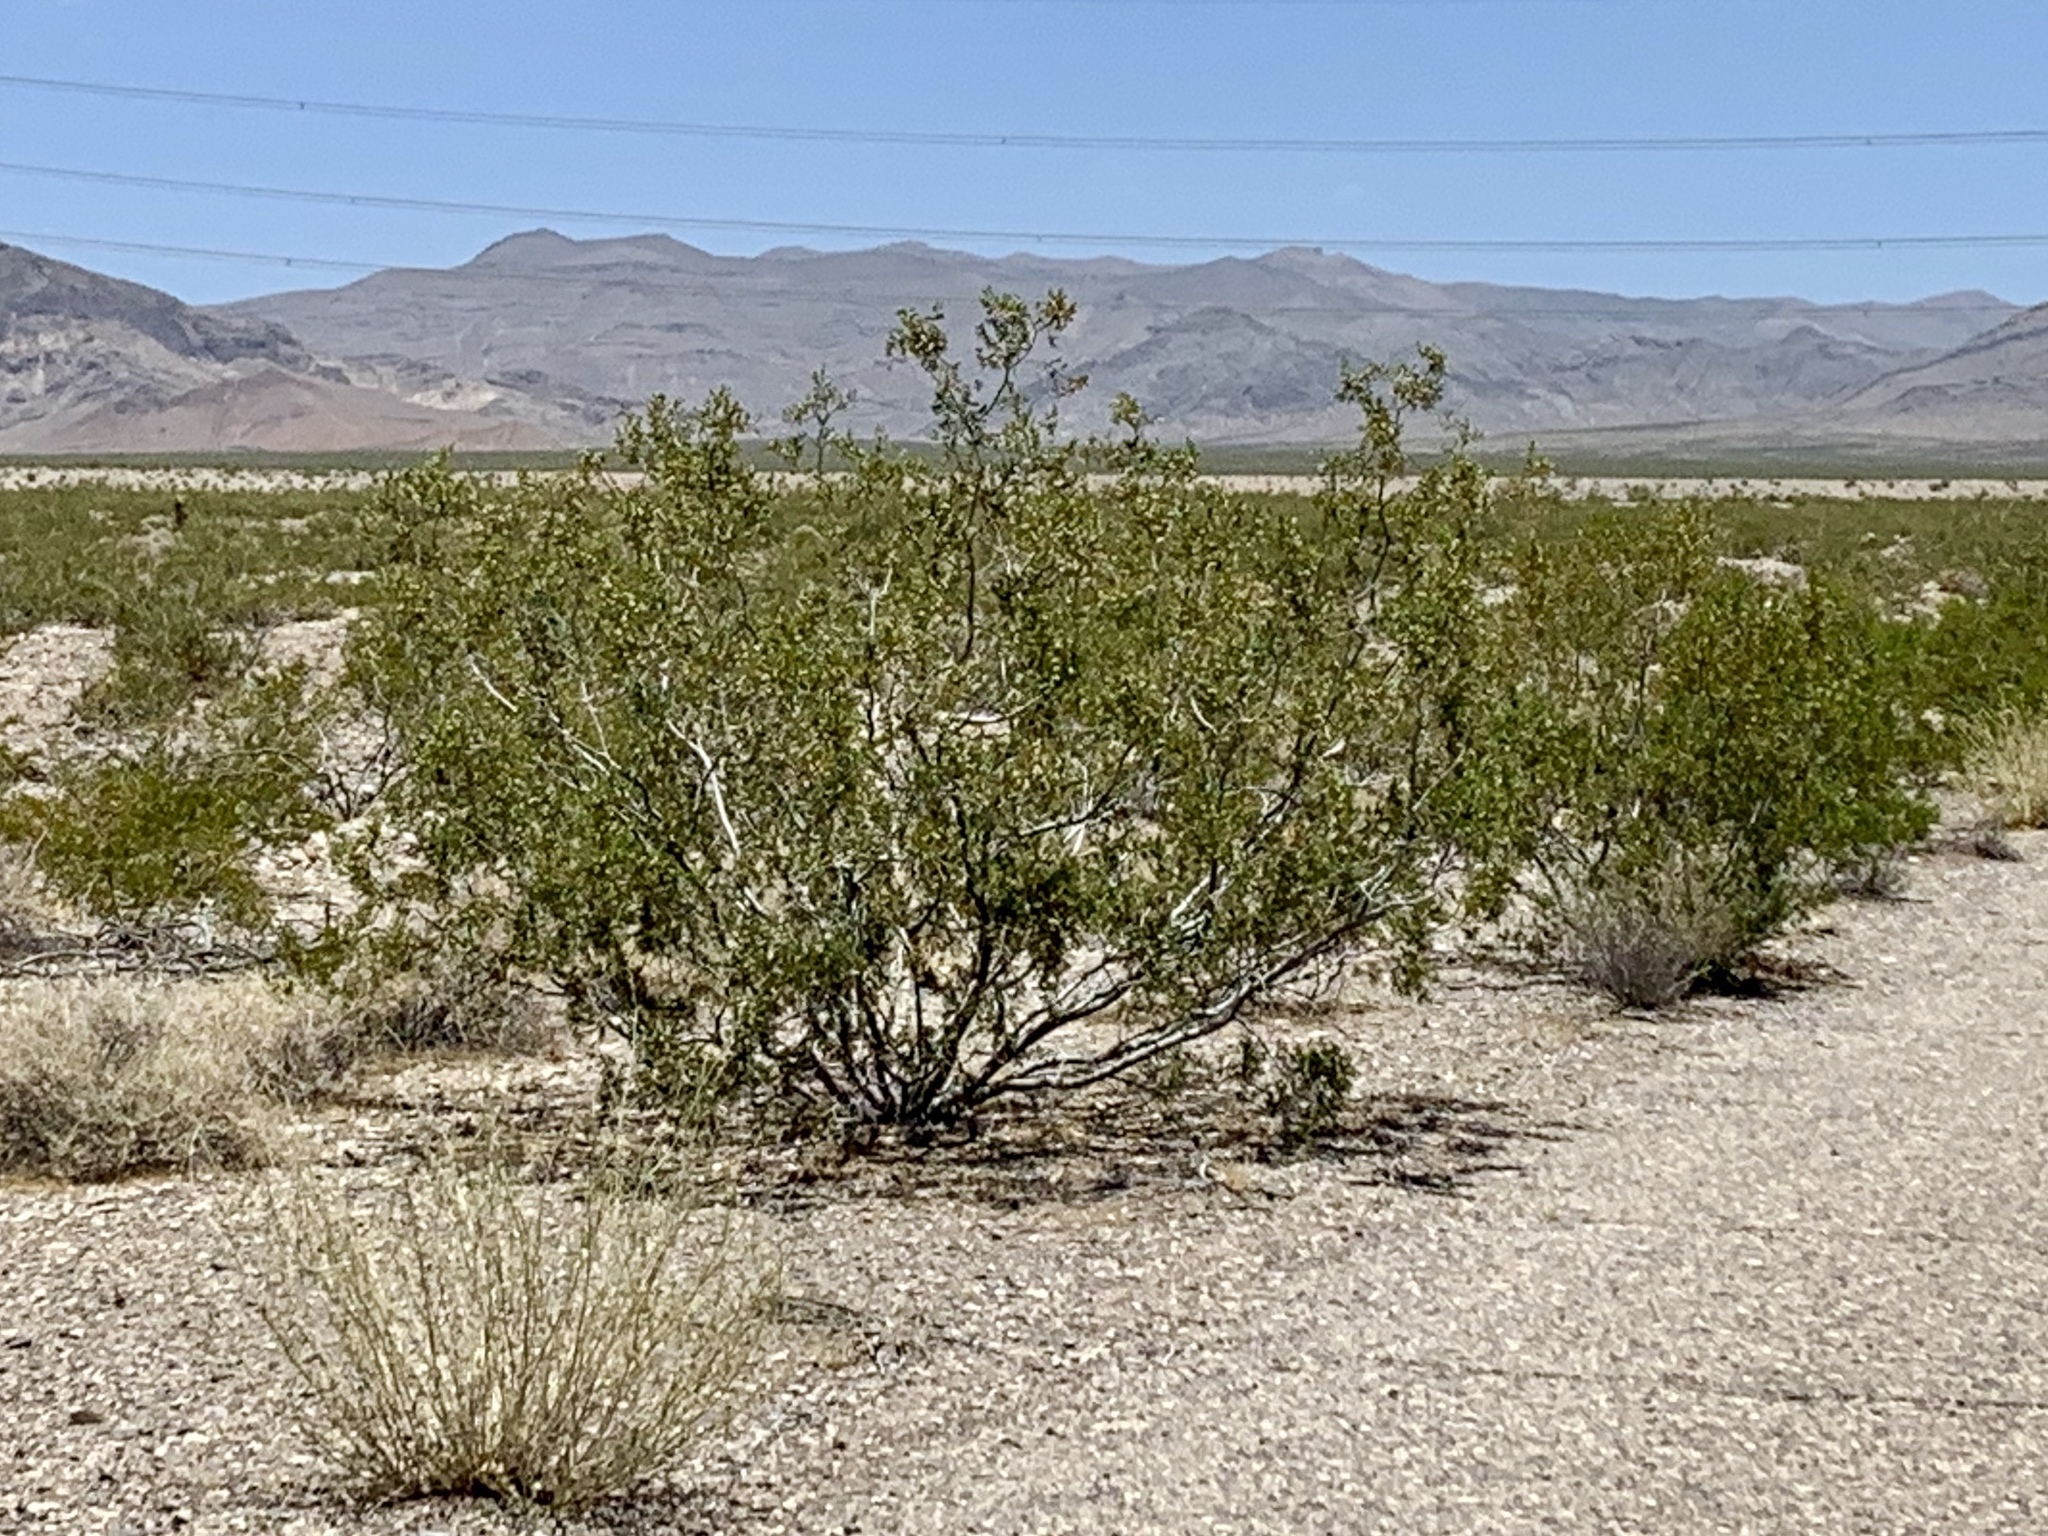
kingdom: Plantae
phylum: Tracheophyta
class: Magnoliopsida
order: Zygophyllales
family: Zygophyllaceae
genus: Larrea
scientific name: Larrea tridentata
